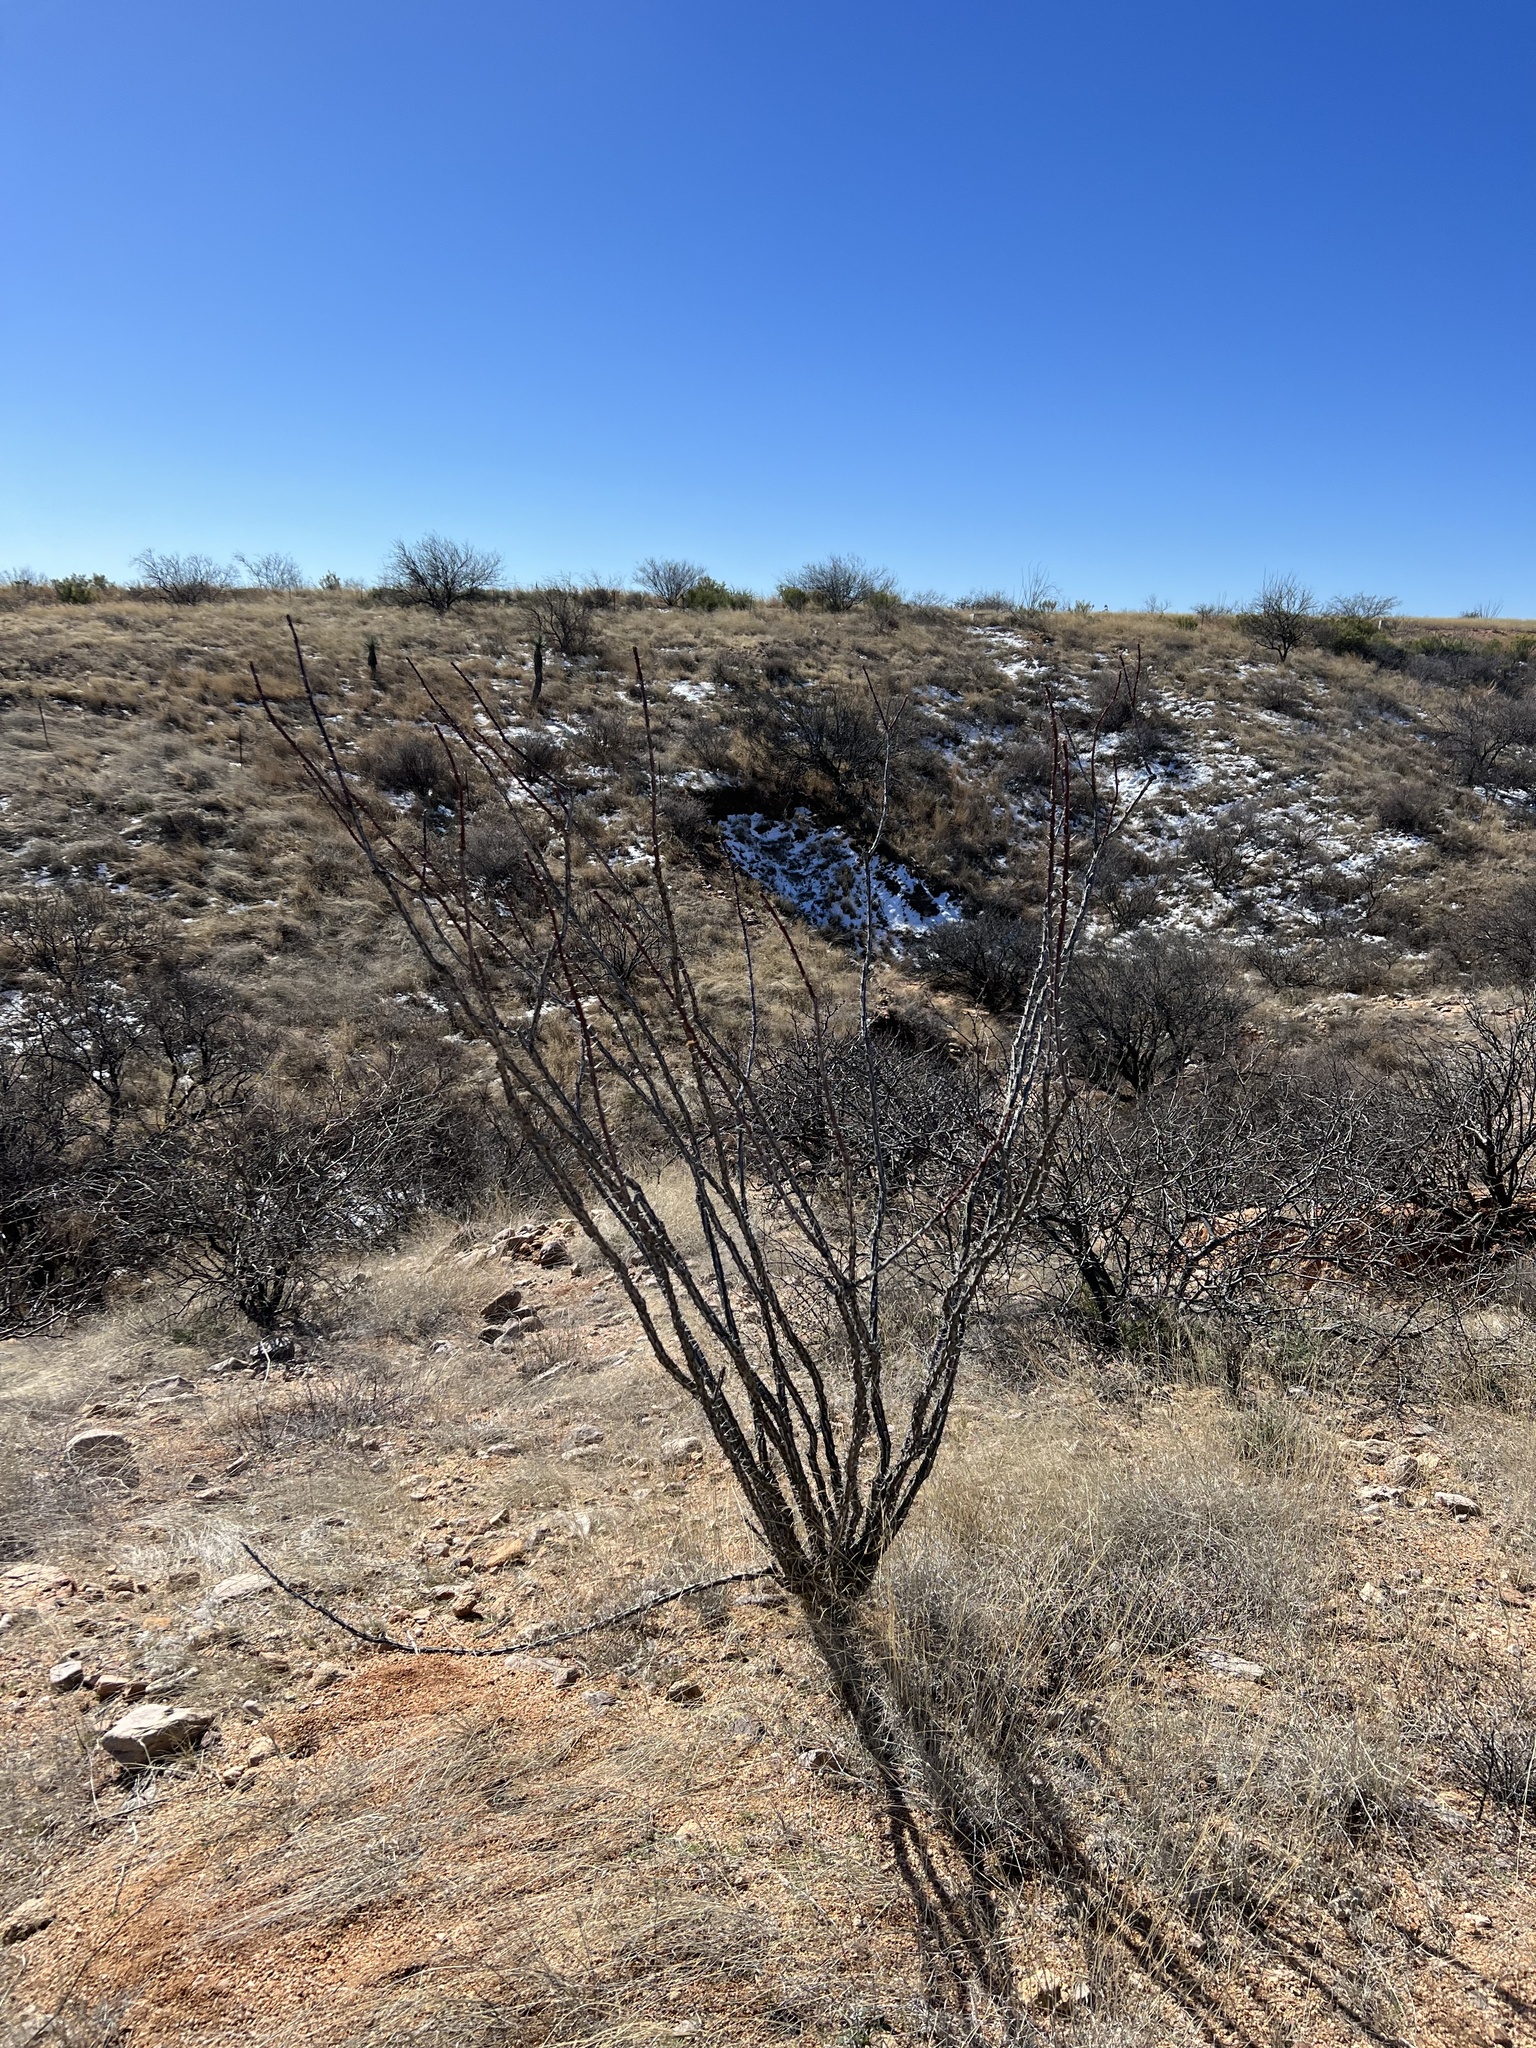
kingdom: Plantae
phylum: Tracheophyta
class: Magnoliopsida
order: Ericales
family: Fouquieriaceae
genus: Fouquieria
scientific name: Fouquieria splendens
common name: Vine-cactus
